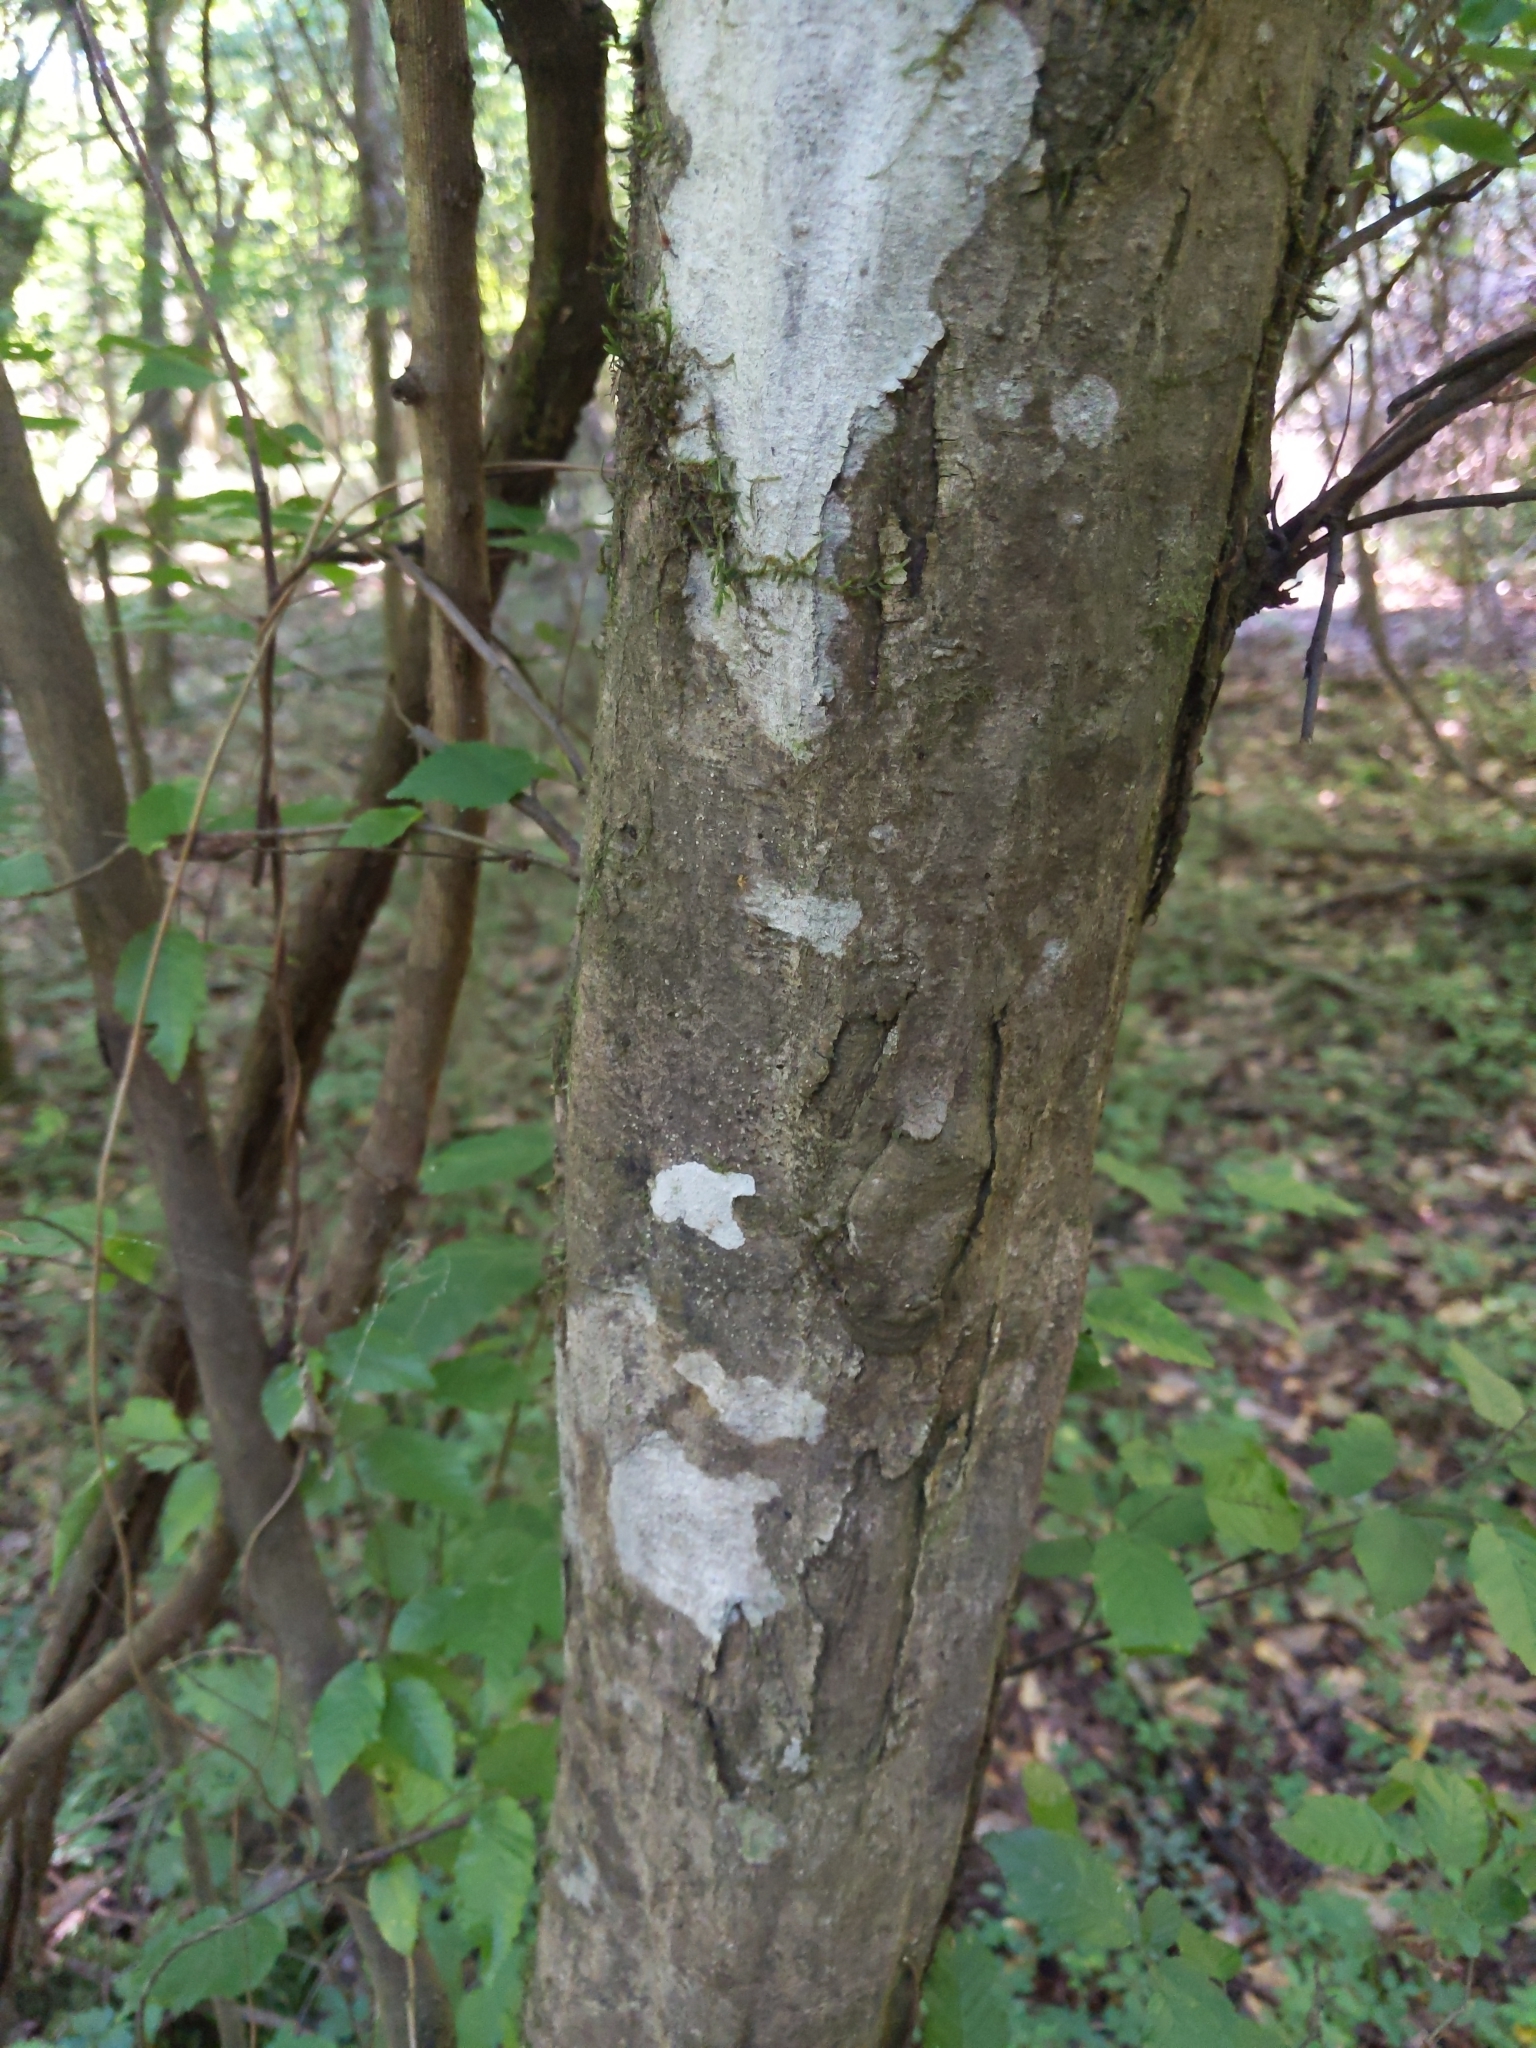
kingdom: Plantae
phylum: Tracheophyta
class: Magnoliopsida
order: Fagales
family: Betulaceae
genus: Carpinus
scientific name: Carpinus caroliniana
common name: American hornbeam
